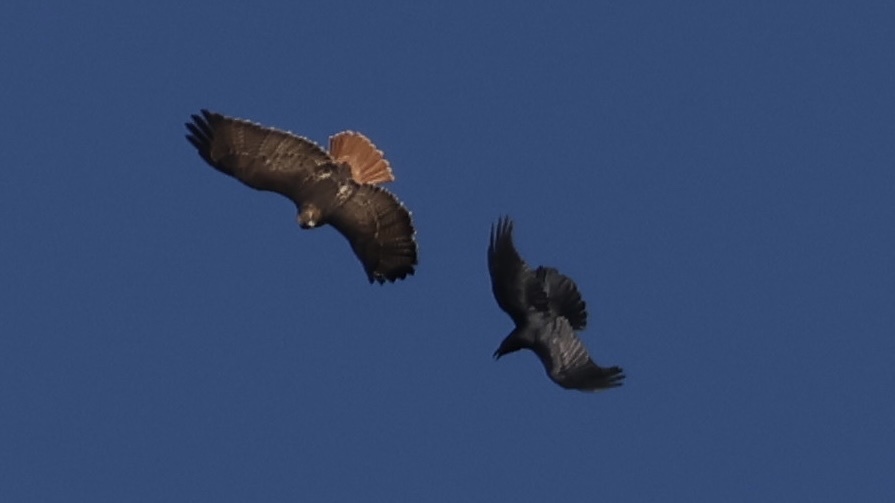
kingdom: Animalia
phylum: Chordata
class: Aves
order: Accipitriformes
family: Accipitridae
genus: Buteo
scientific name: Buteo jamaicensis
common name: Red-tailed hawk
